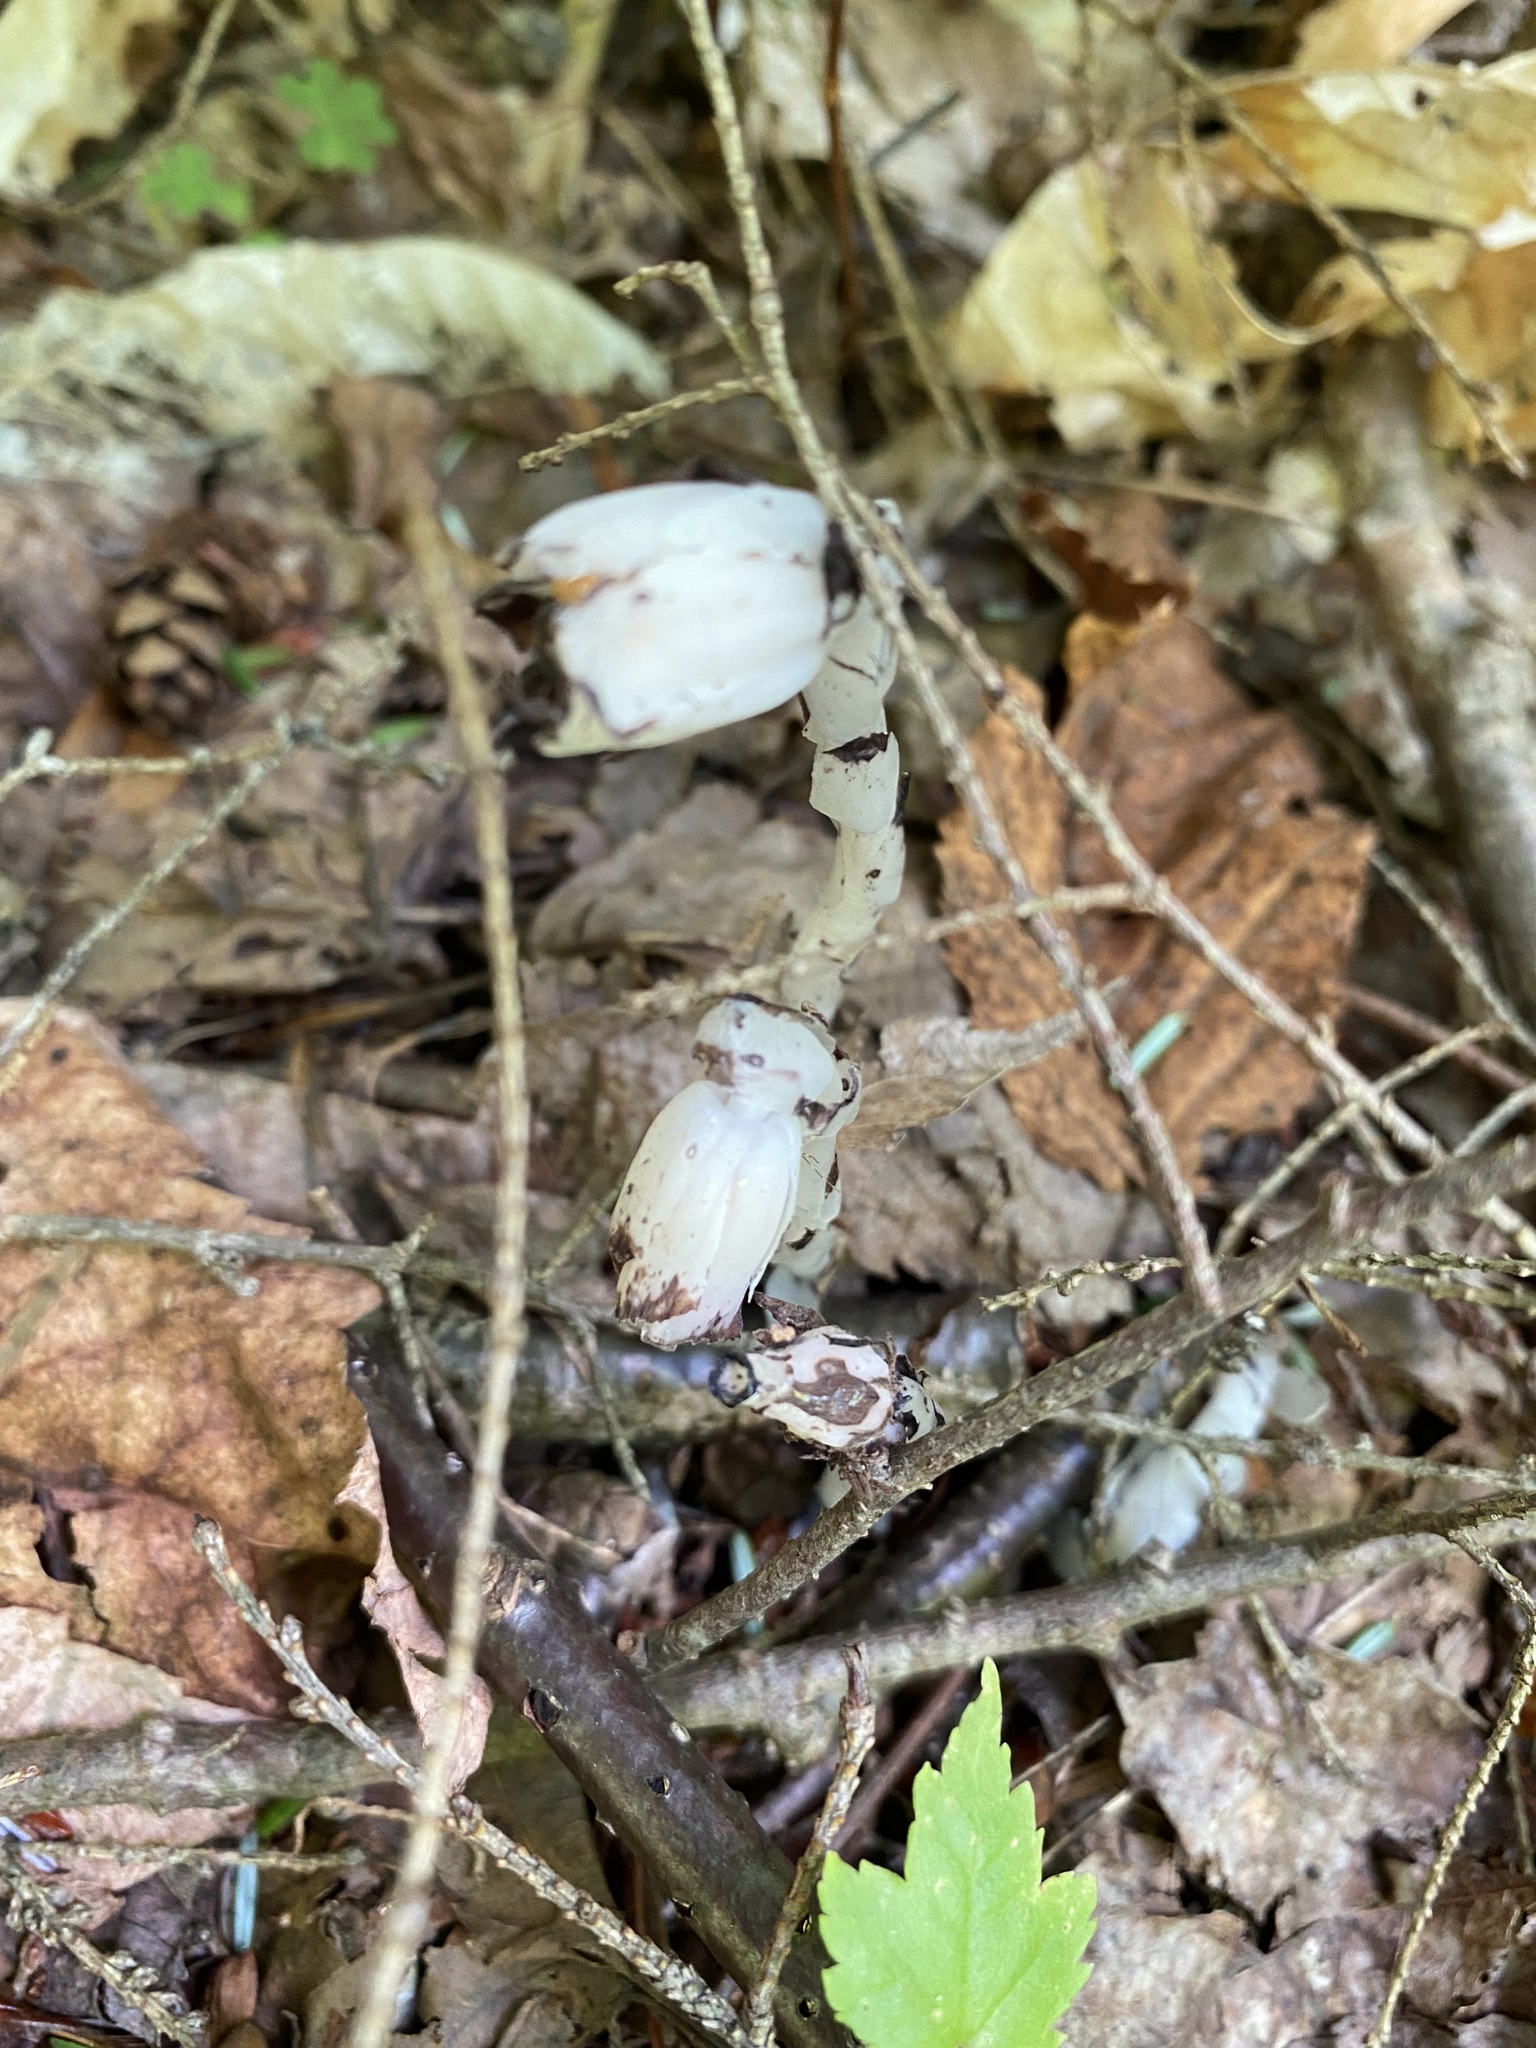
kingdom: Plantae
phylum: Tracheophyta
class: Magnoliopsida
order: Ericales
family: Ericaceae
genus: Monotropa
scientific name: Monotropa uniflora
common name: Convulsion root
